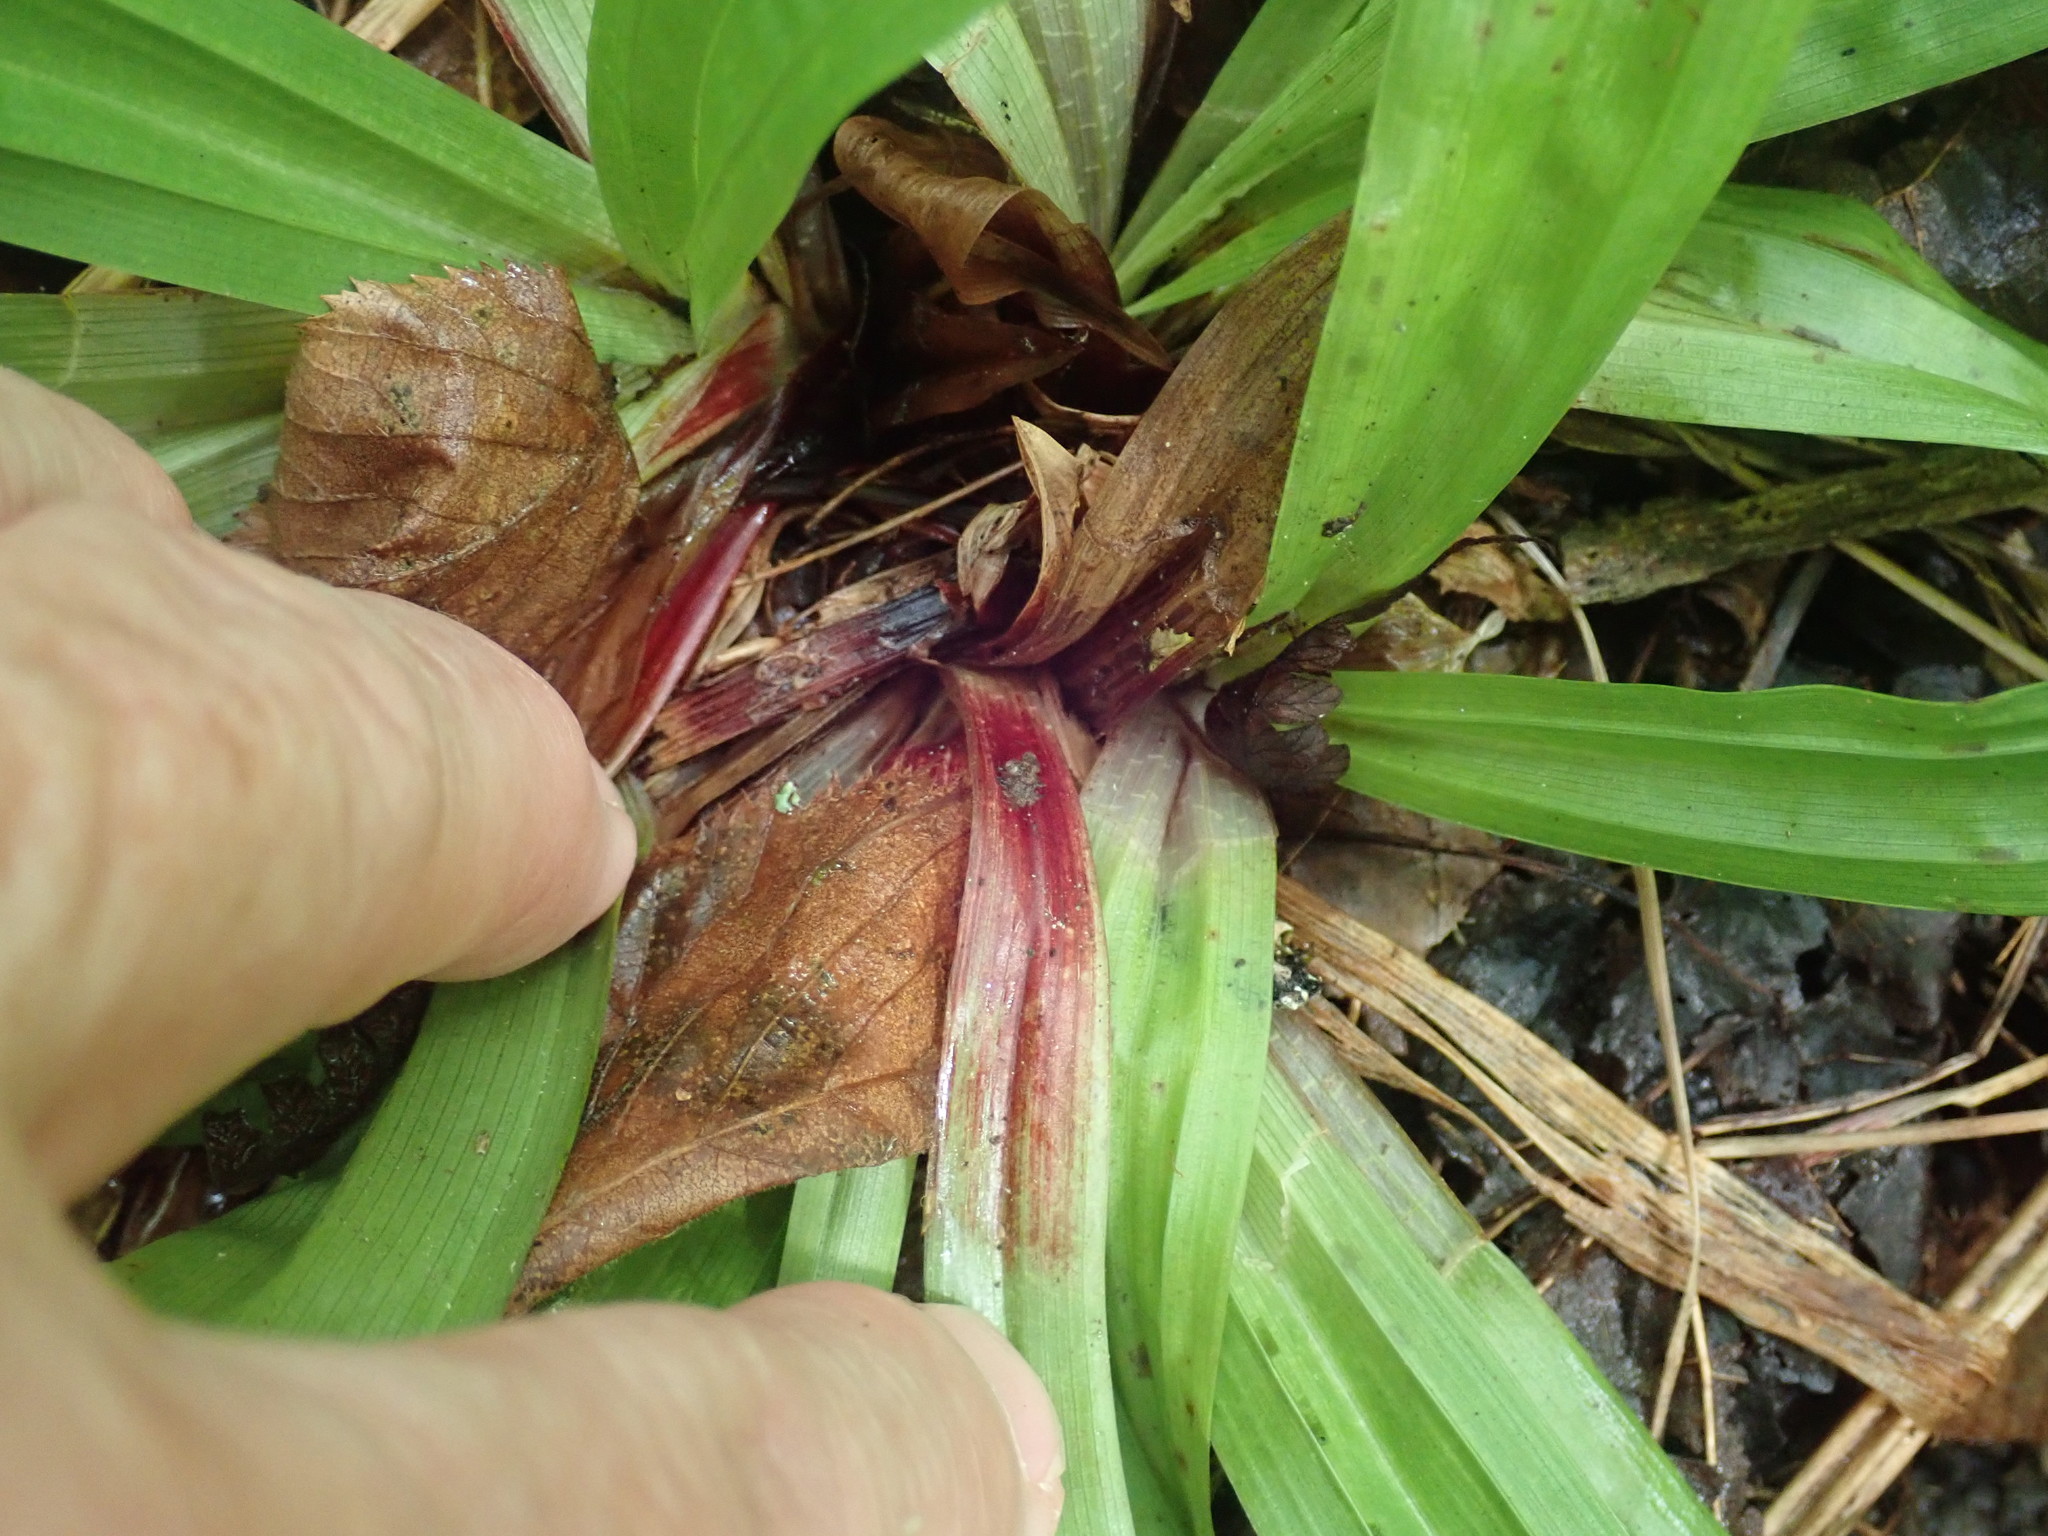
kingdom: Plantae
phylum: Tracheophyta
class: Liliopsida
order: Poales
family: Cyperaceae
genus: Carex
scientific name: Carex plantaginea
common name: Plantain-leaved sedge
